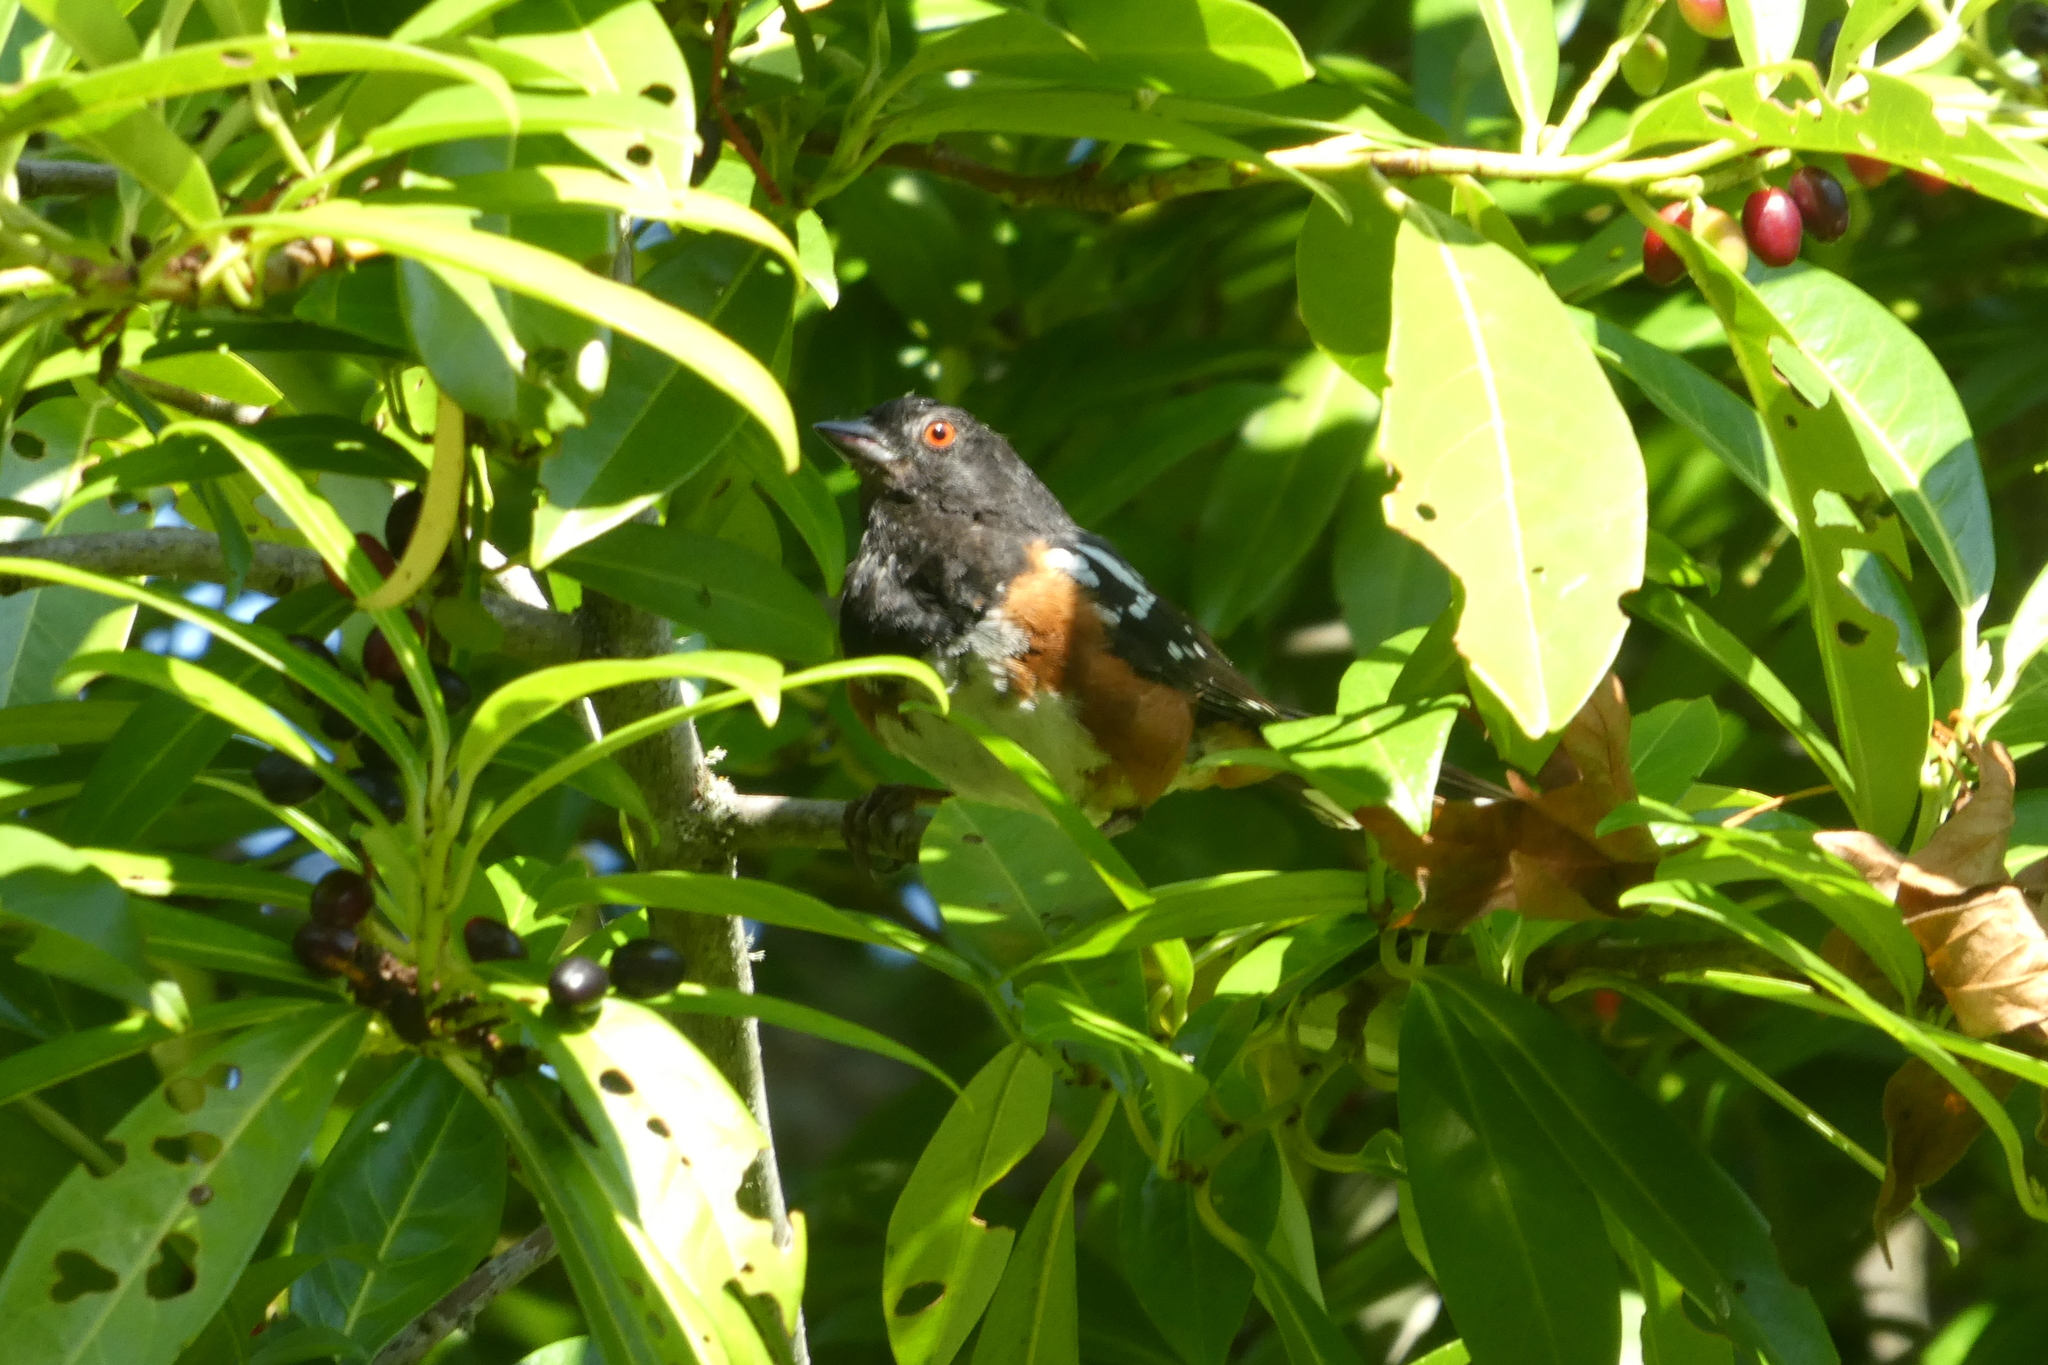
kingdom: Animalia
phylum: Chordata
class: Aves
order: Passeriformes
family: Passerellidae
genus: Pipilo
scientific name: Pipilo maculatus
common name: Spotted towhee
